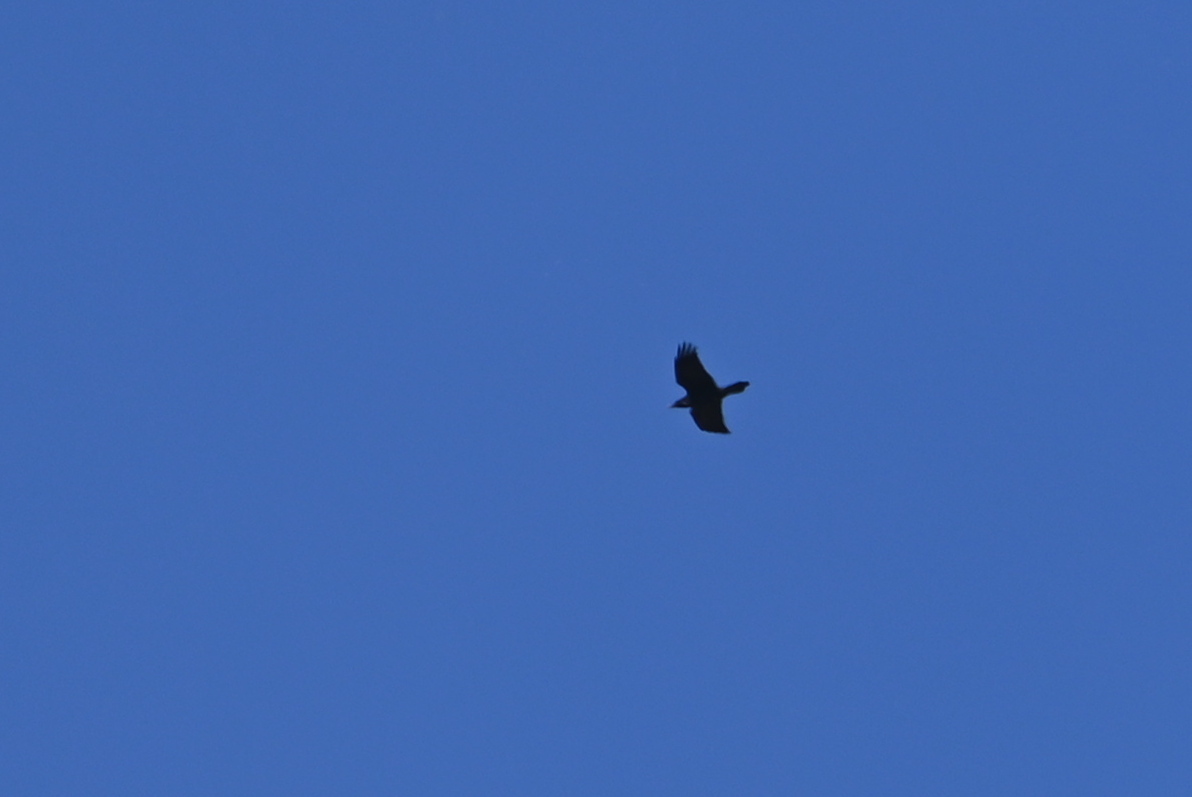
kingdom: Animalia
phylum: Chordata
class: Aves
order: Passeriformes
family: Corvidae
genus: Corvus
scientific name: Corvus corax
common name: Common raven
